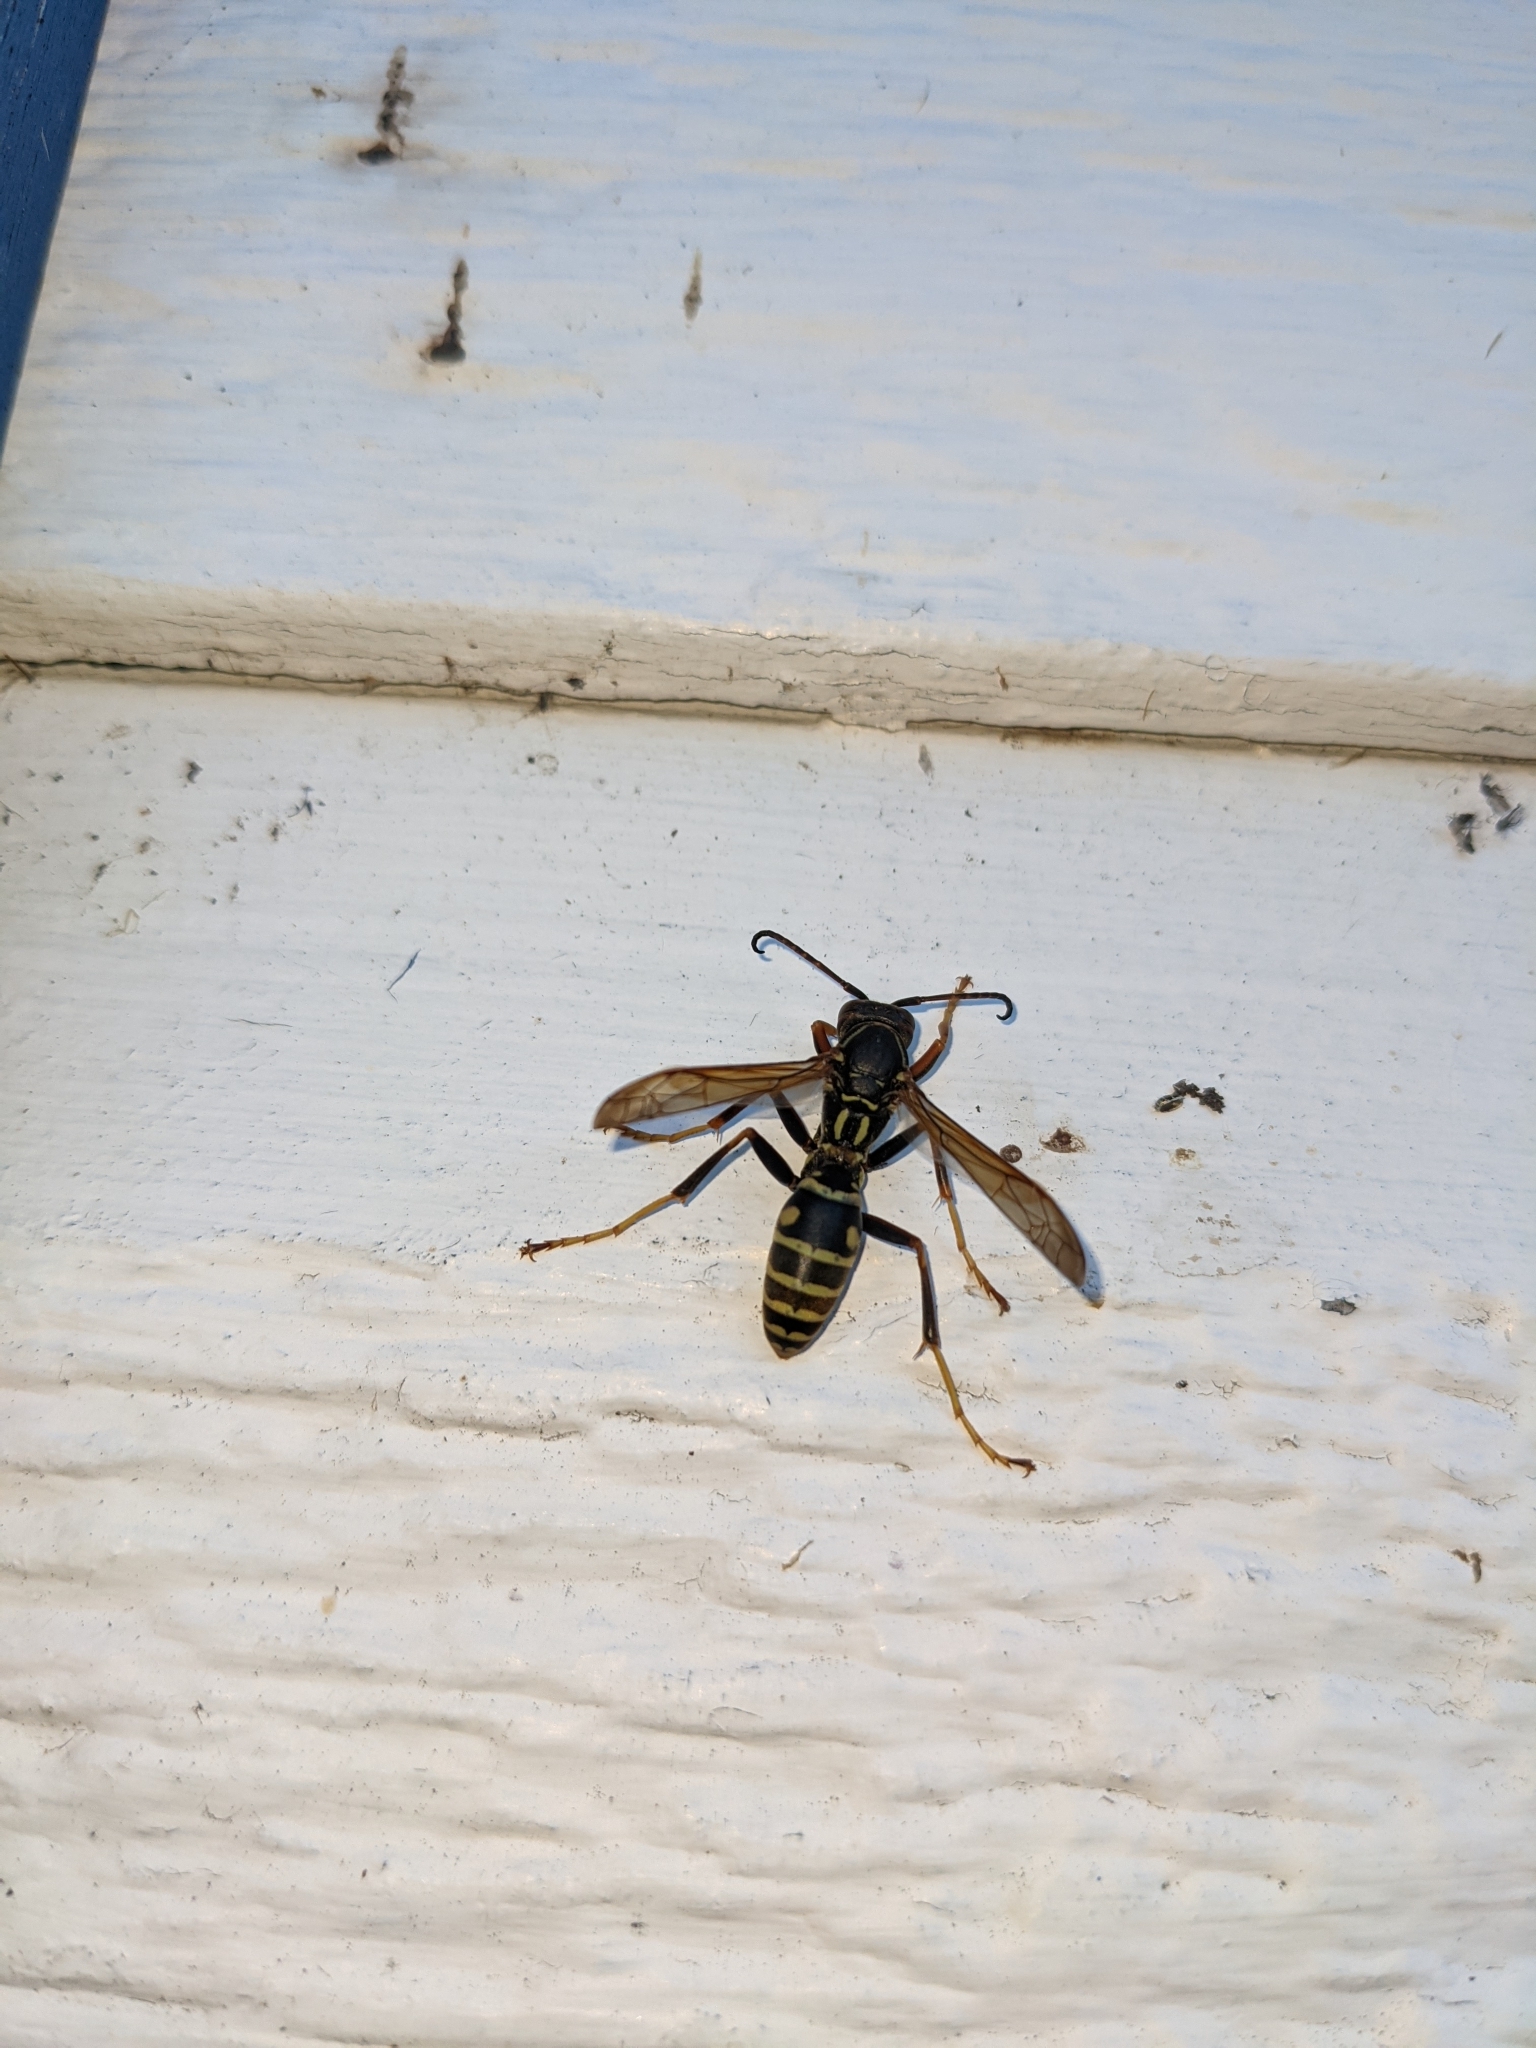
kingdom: Animalia
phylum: Arthropoda
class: Insecta
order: Hymenoptera
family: Eumenidae
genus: Polistes
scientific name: Polistes fuscatus
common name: Dark paper wasp
